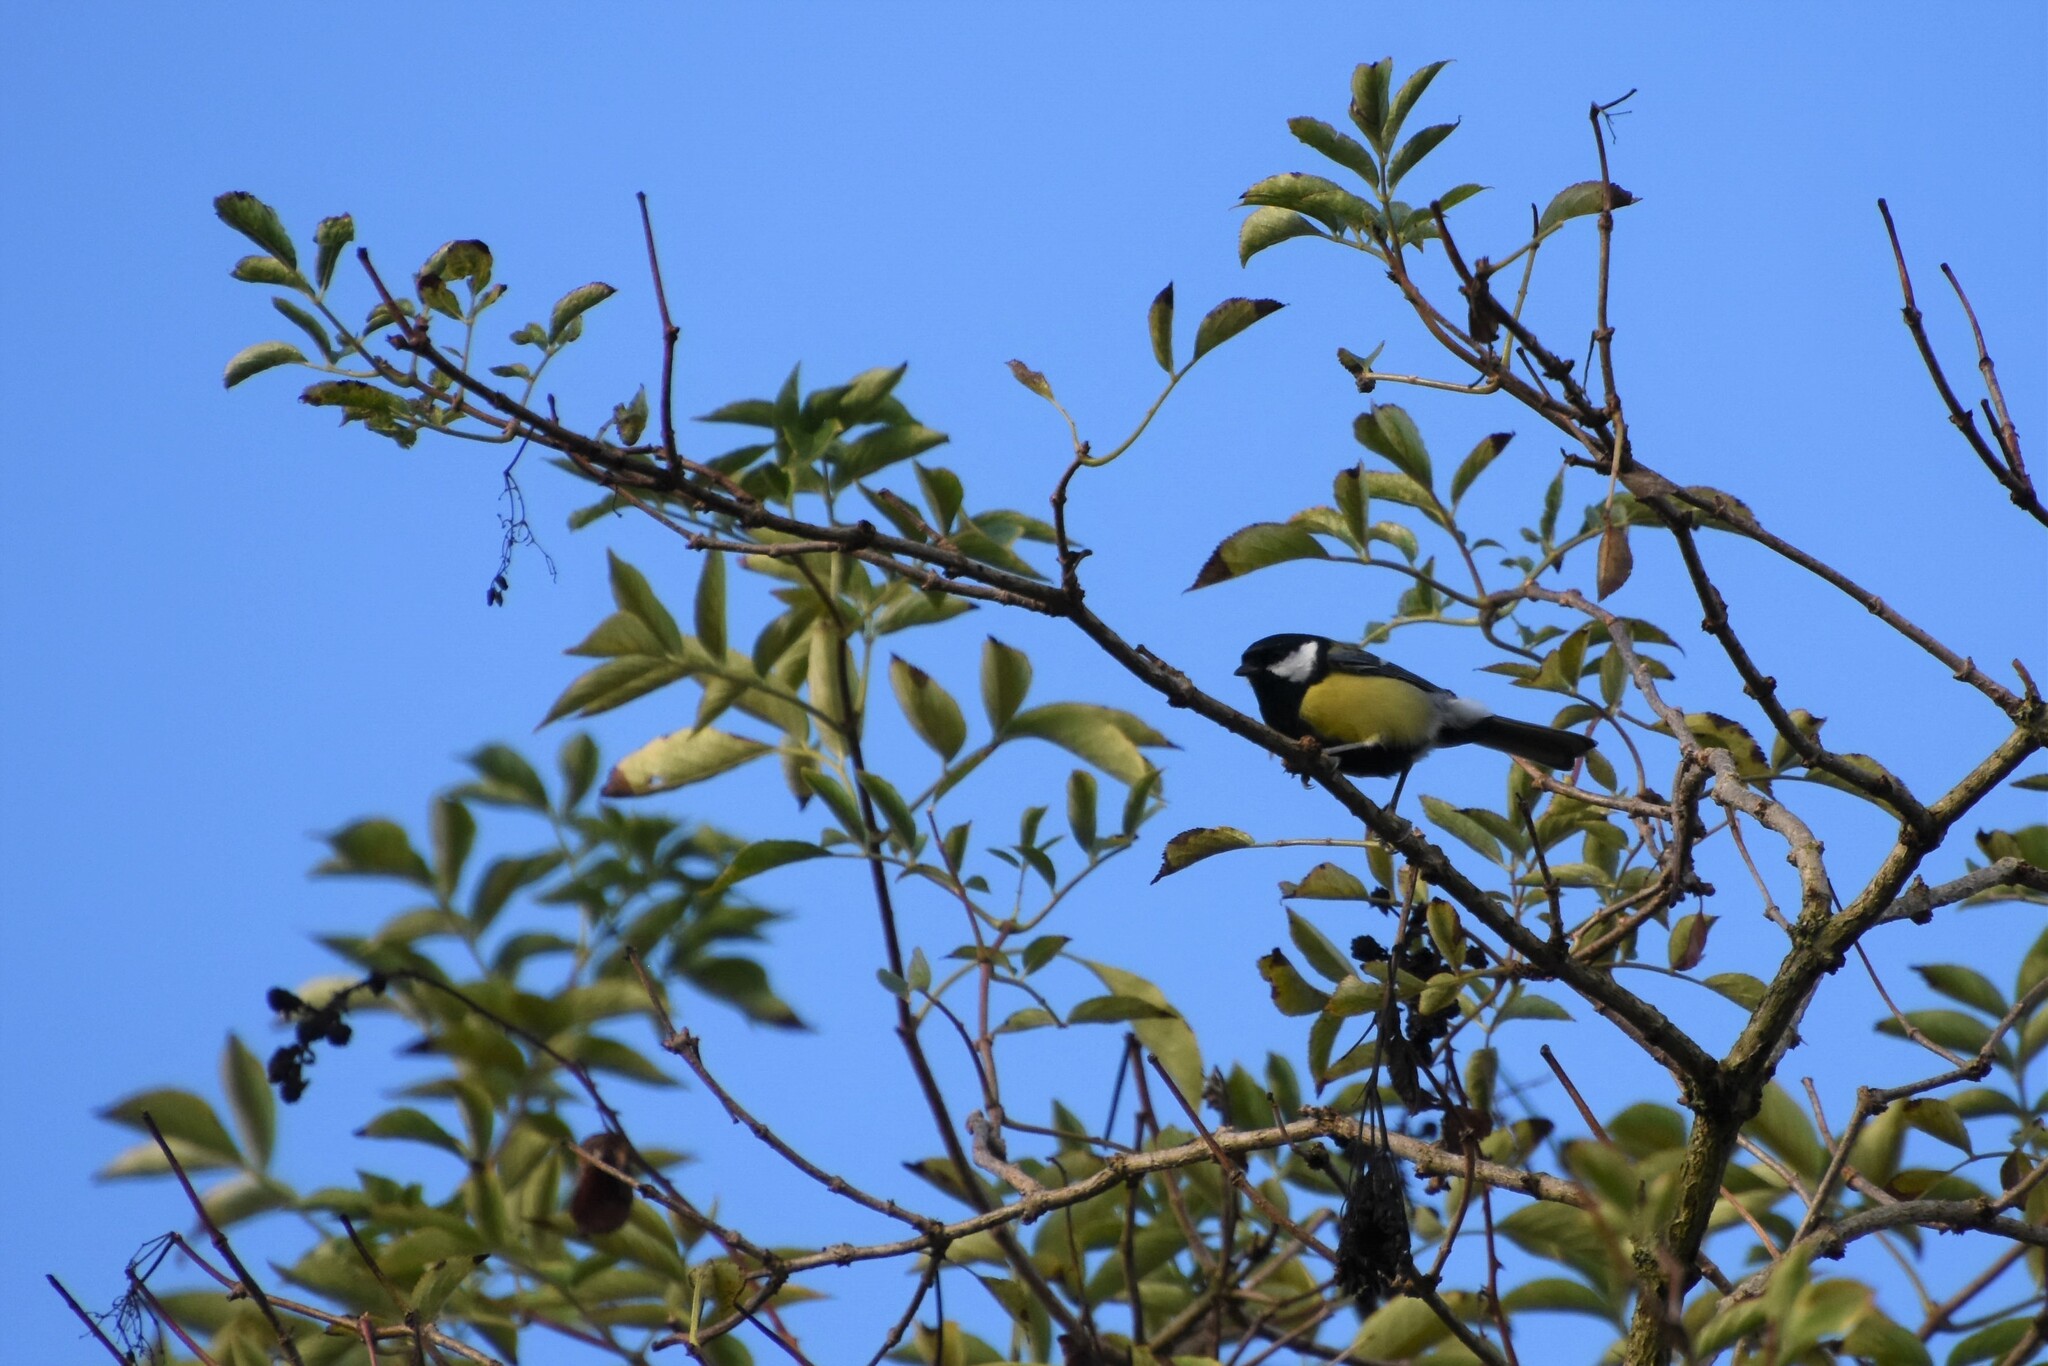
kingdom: Animalia
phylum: Chordata
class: Aves
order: Passeriformes
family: Paridae
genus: Parus
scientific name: Parus major
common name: Great tit
